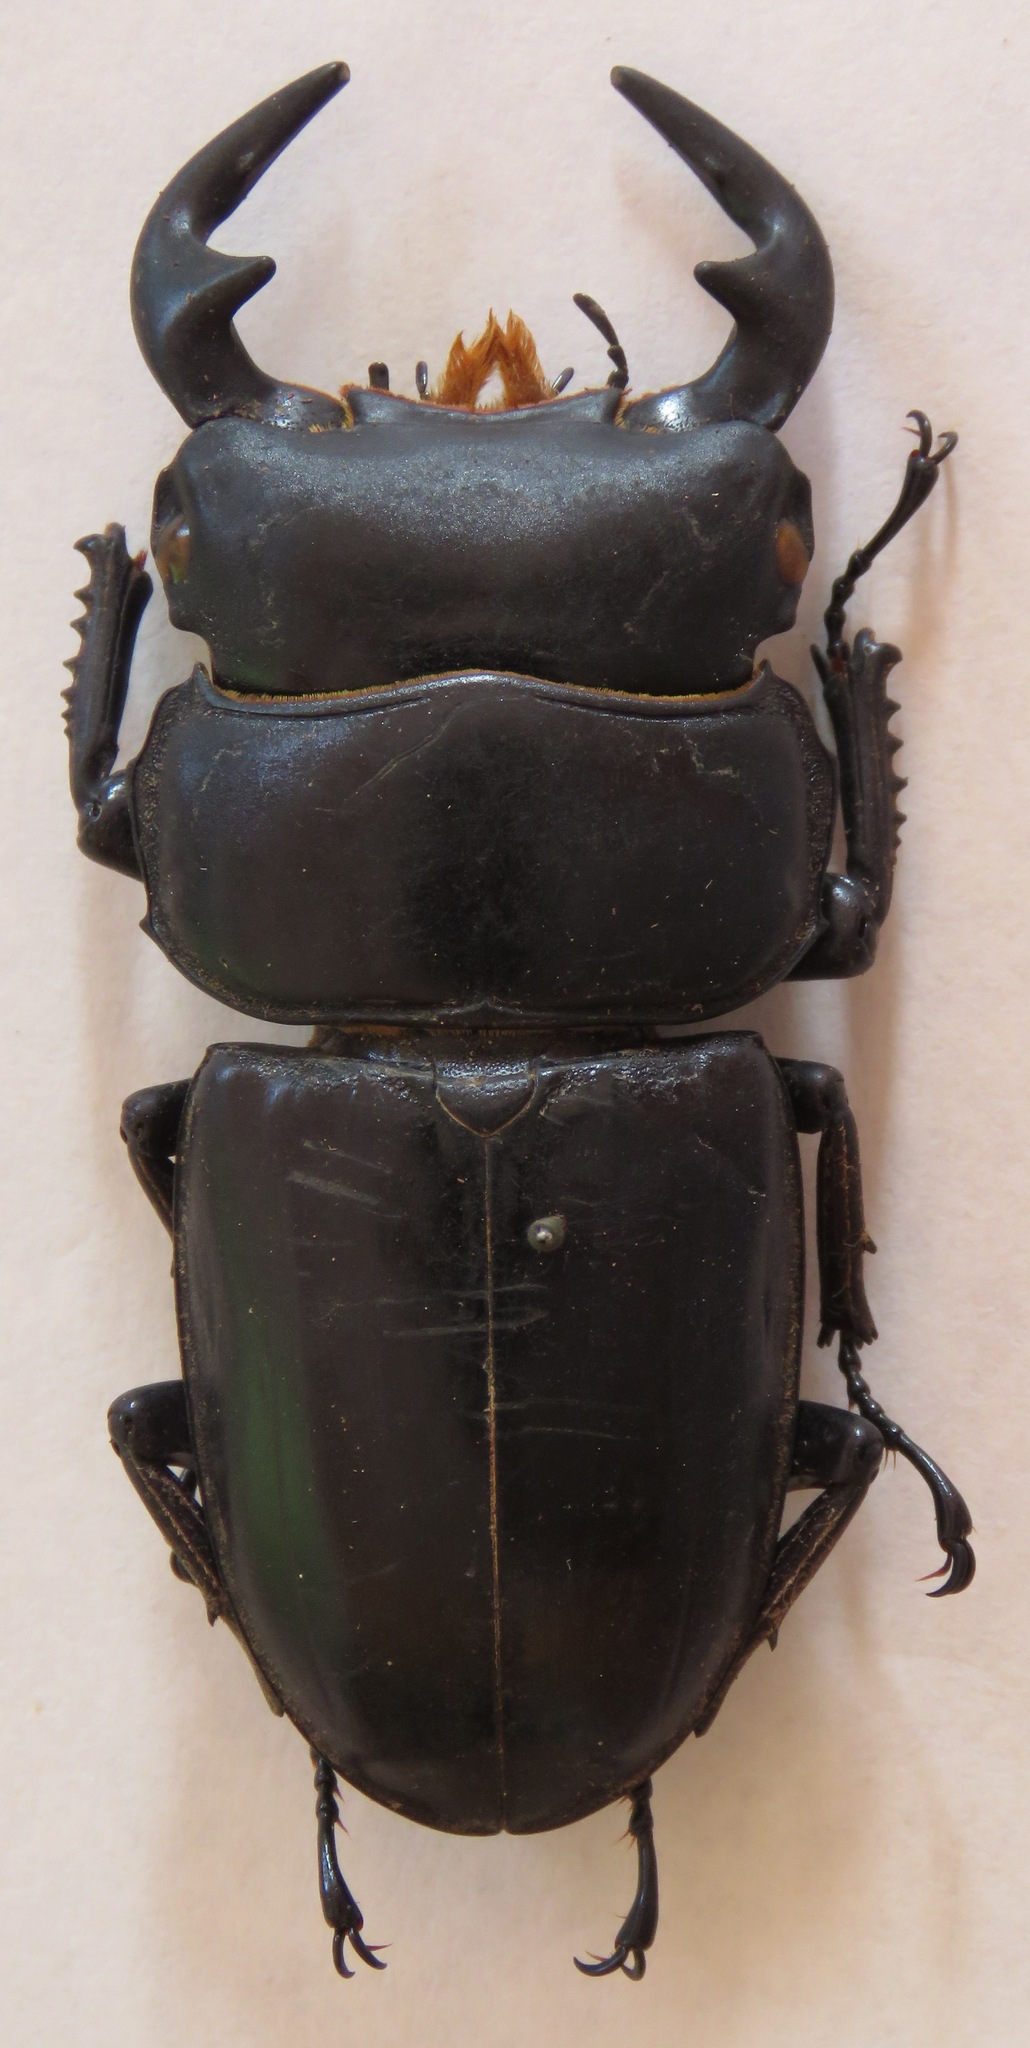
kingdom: Animalia
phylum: Arthropoda
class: Insecta
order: Coleoptera
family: Lucanidae
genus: Dorcus
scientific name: Dorcus antaeus
